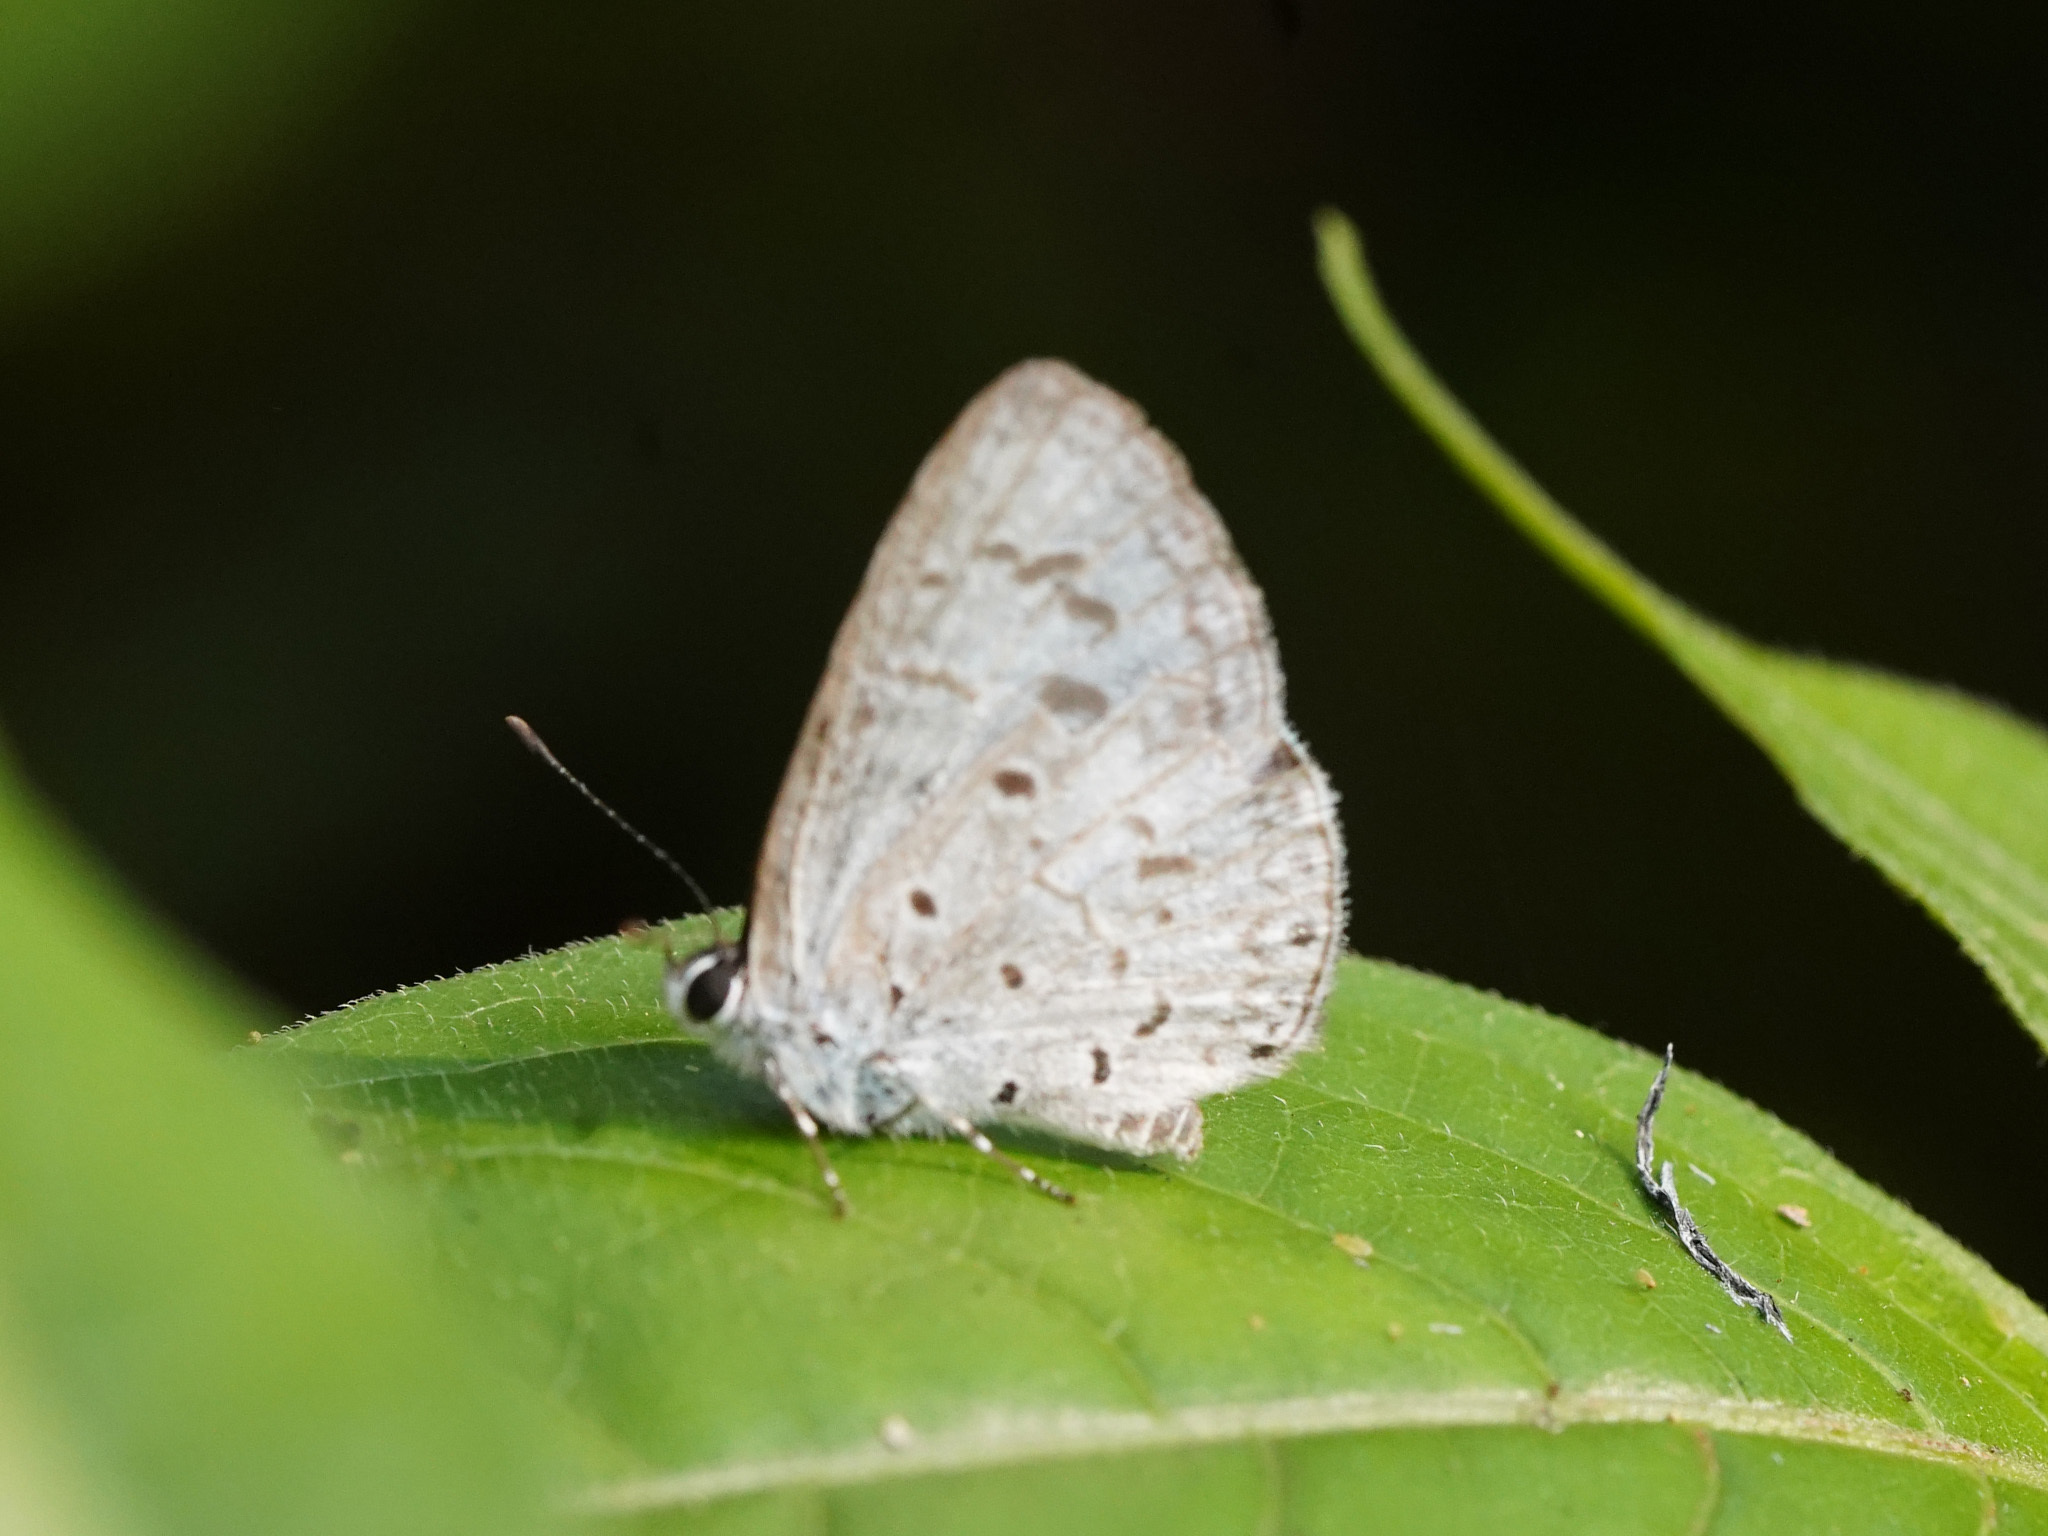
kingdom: Animalia
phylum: Arthropoda
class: Insecta
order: Lepidoptera
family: Lycaenidae
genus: Acytolepis
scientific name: Acytolepis puspa
